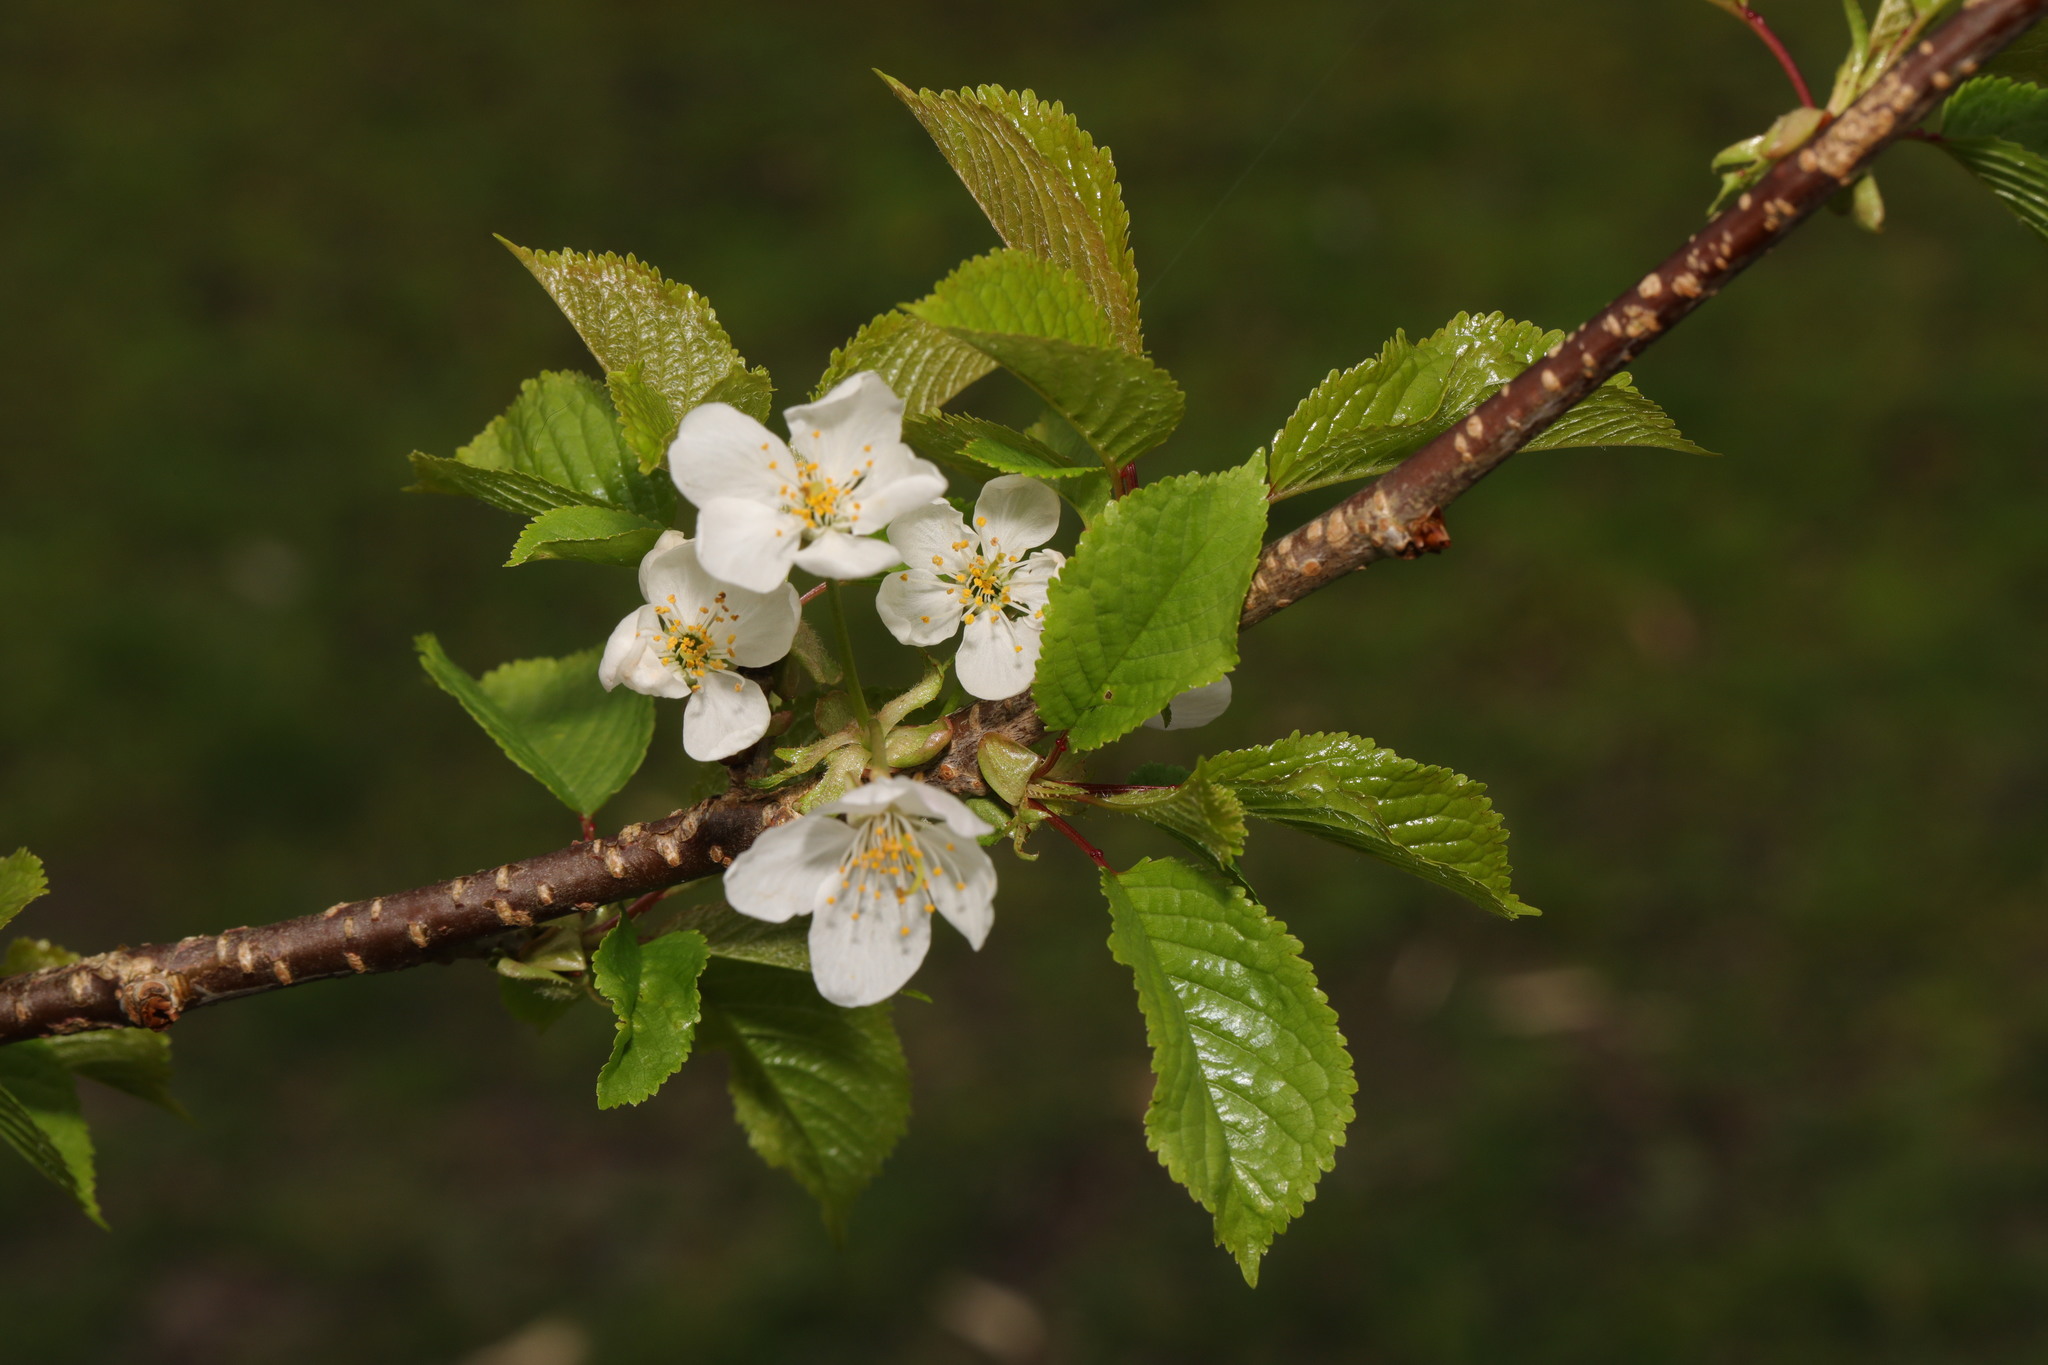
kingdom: Plantae
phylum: Tracheophyta
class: Magnoliopsida
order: Rosales
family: Rosaceae
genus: Prunus
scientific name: Prunus avium
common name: Sweet cherry
